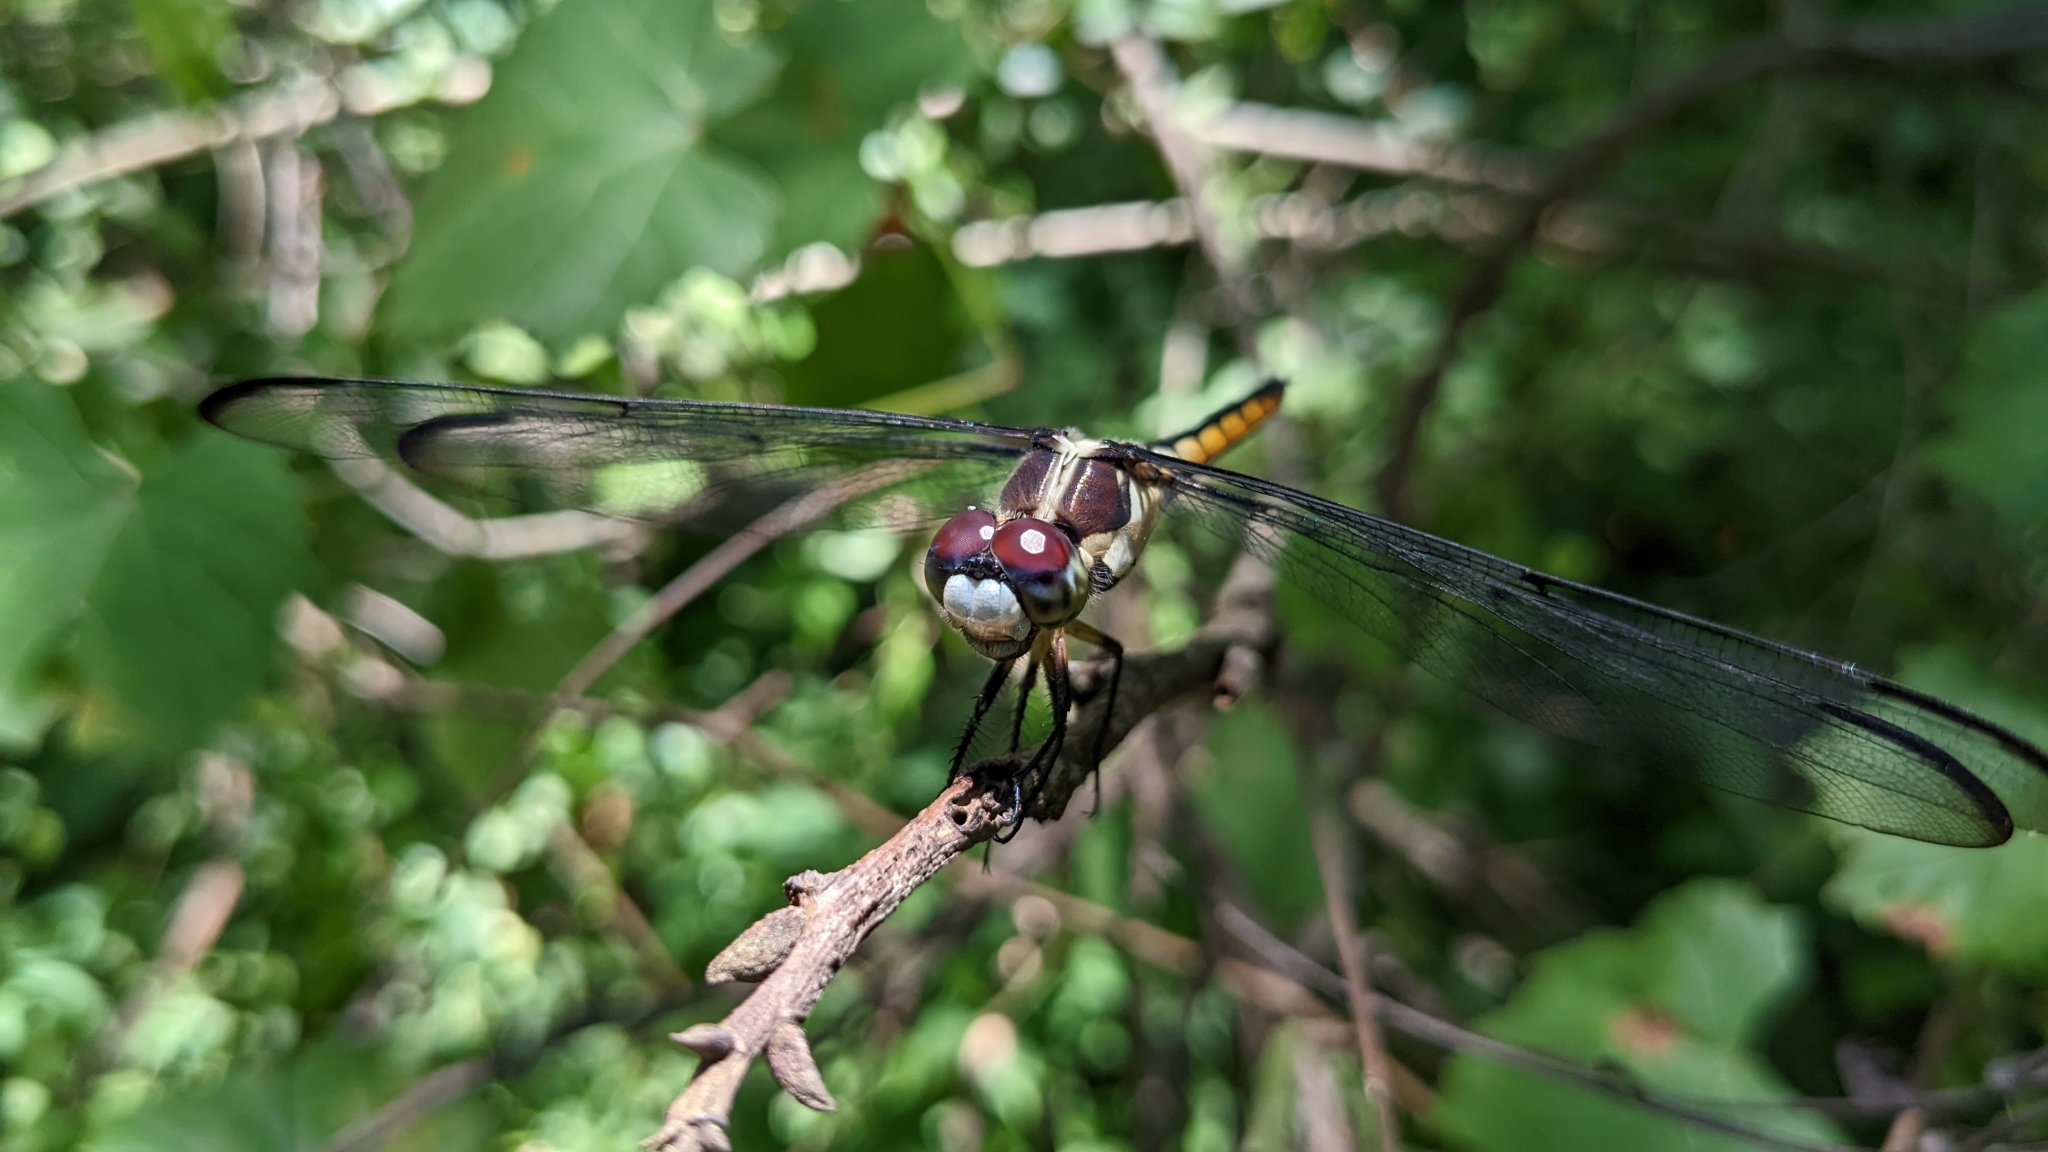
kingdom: Animalia
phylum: Arthropoda
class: Insecta
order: Odonata
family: Libellulidae
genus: Libellula
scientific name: Libellula vibrans
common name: Great blue skimmer
